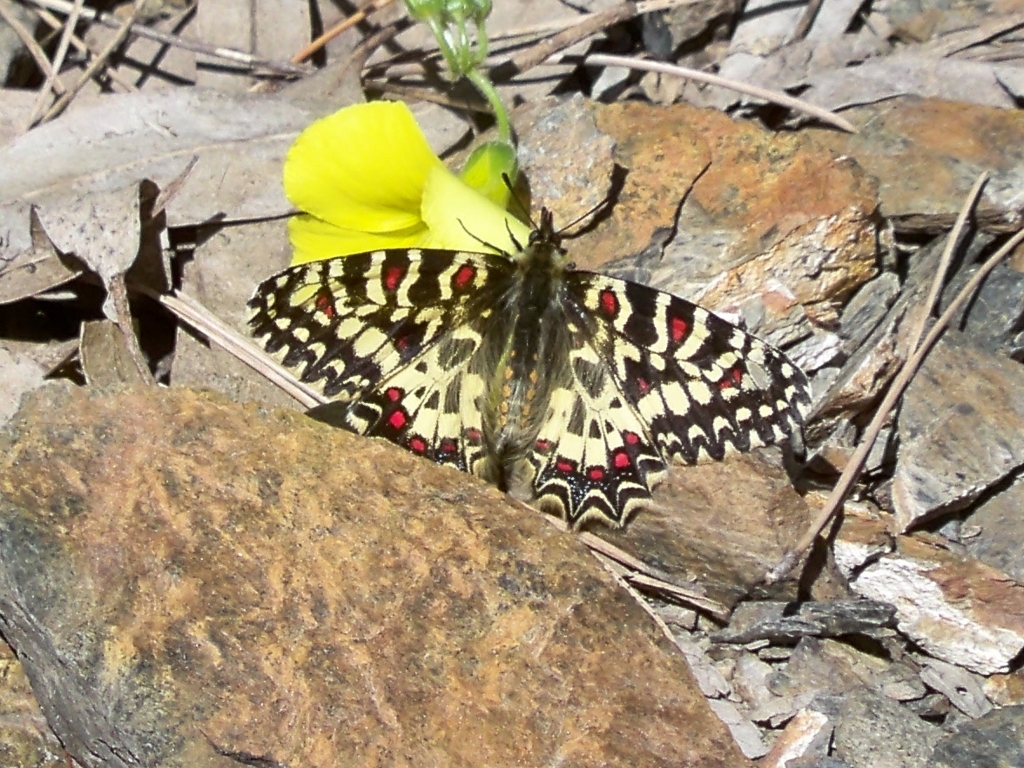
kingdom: Animalia
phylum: Arthropoda
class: Insecta
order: Lepidoptera
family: Papilionidae
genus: Zerynthia
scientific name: Zerynthia rumina
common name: Spanish festoon
